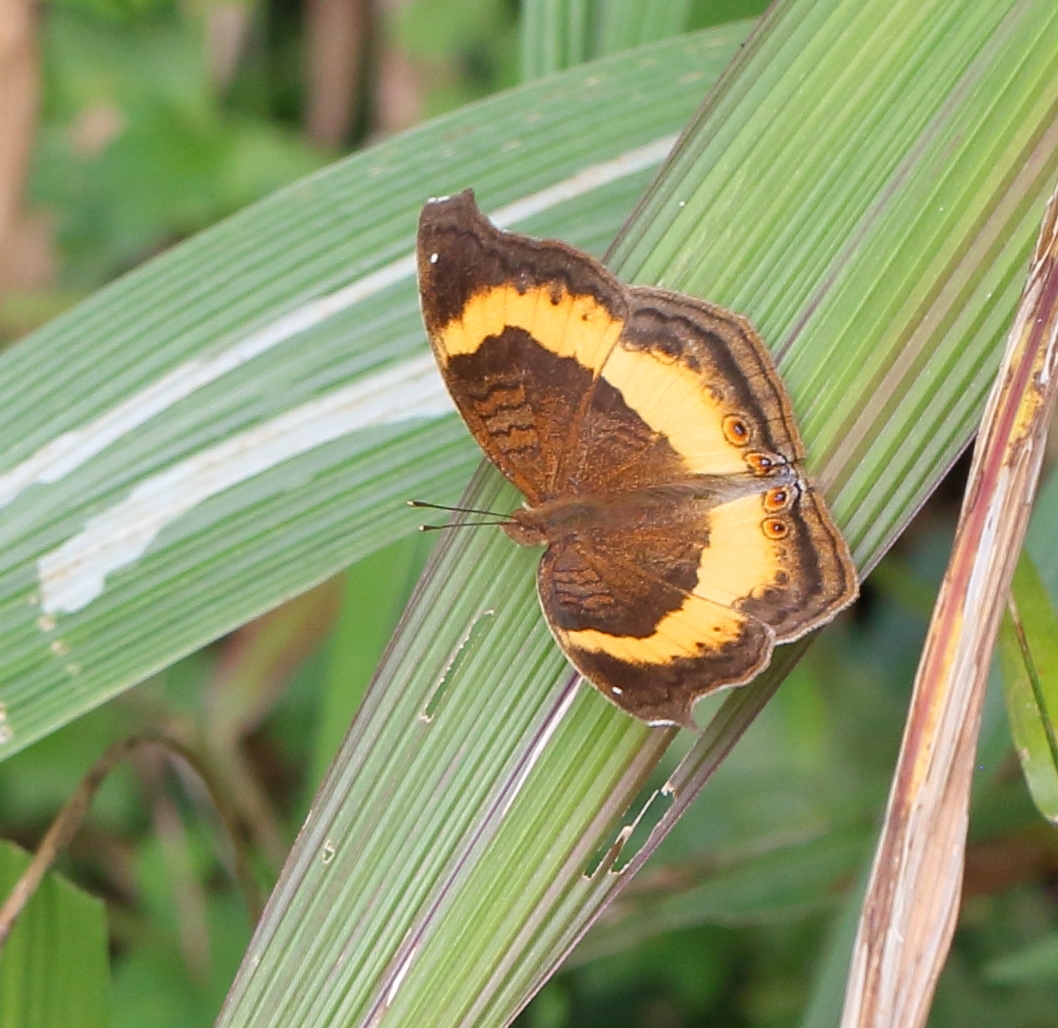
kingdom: Animalia
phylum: Arthropoda
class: Insecta
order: Lepidoptera
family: Nymphalidae
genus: Junonia
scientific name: Junonia terea
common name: Soldier pansy
